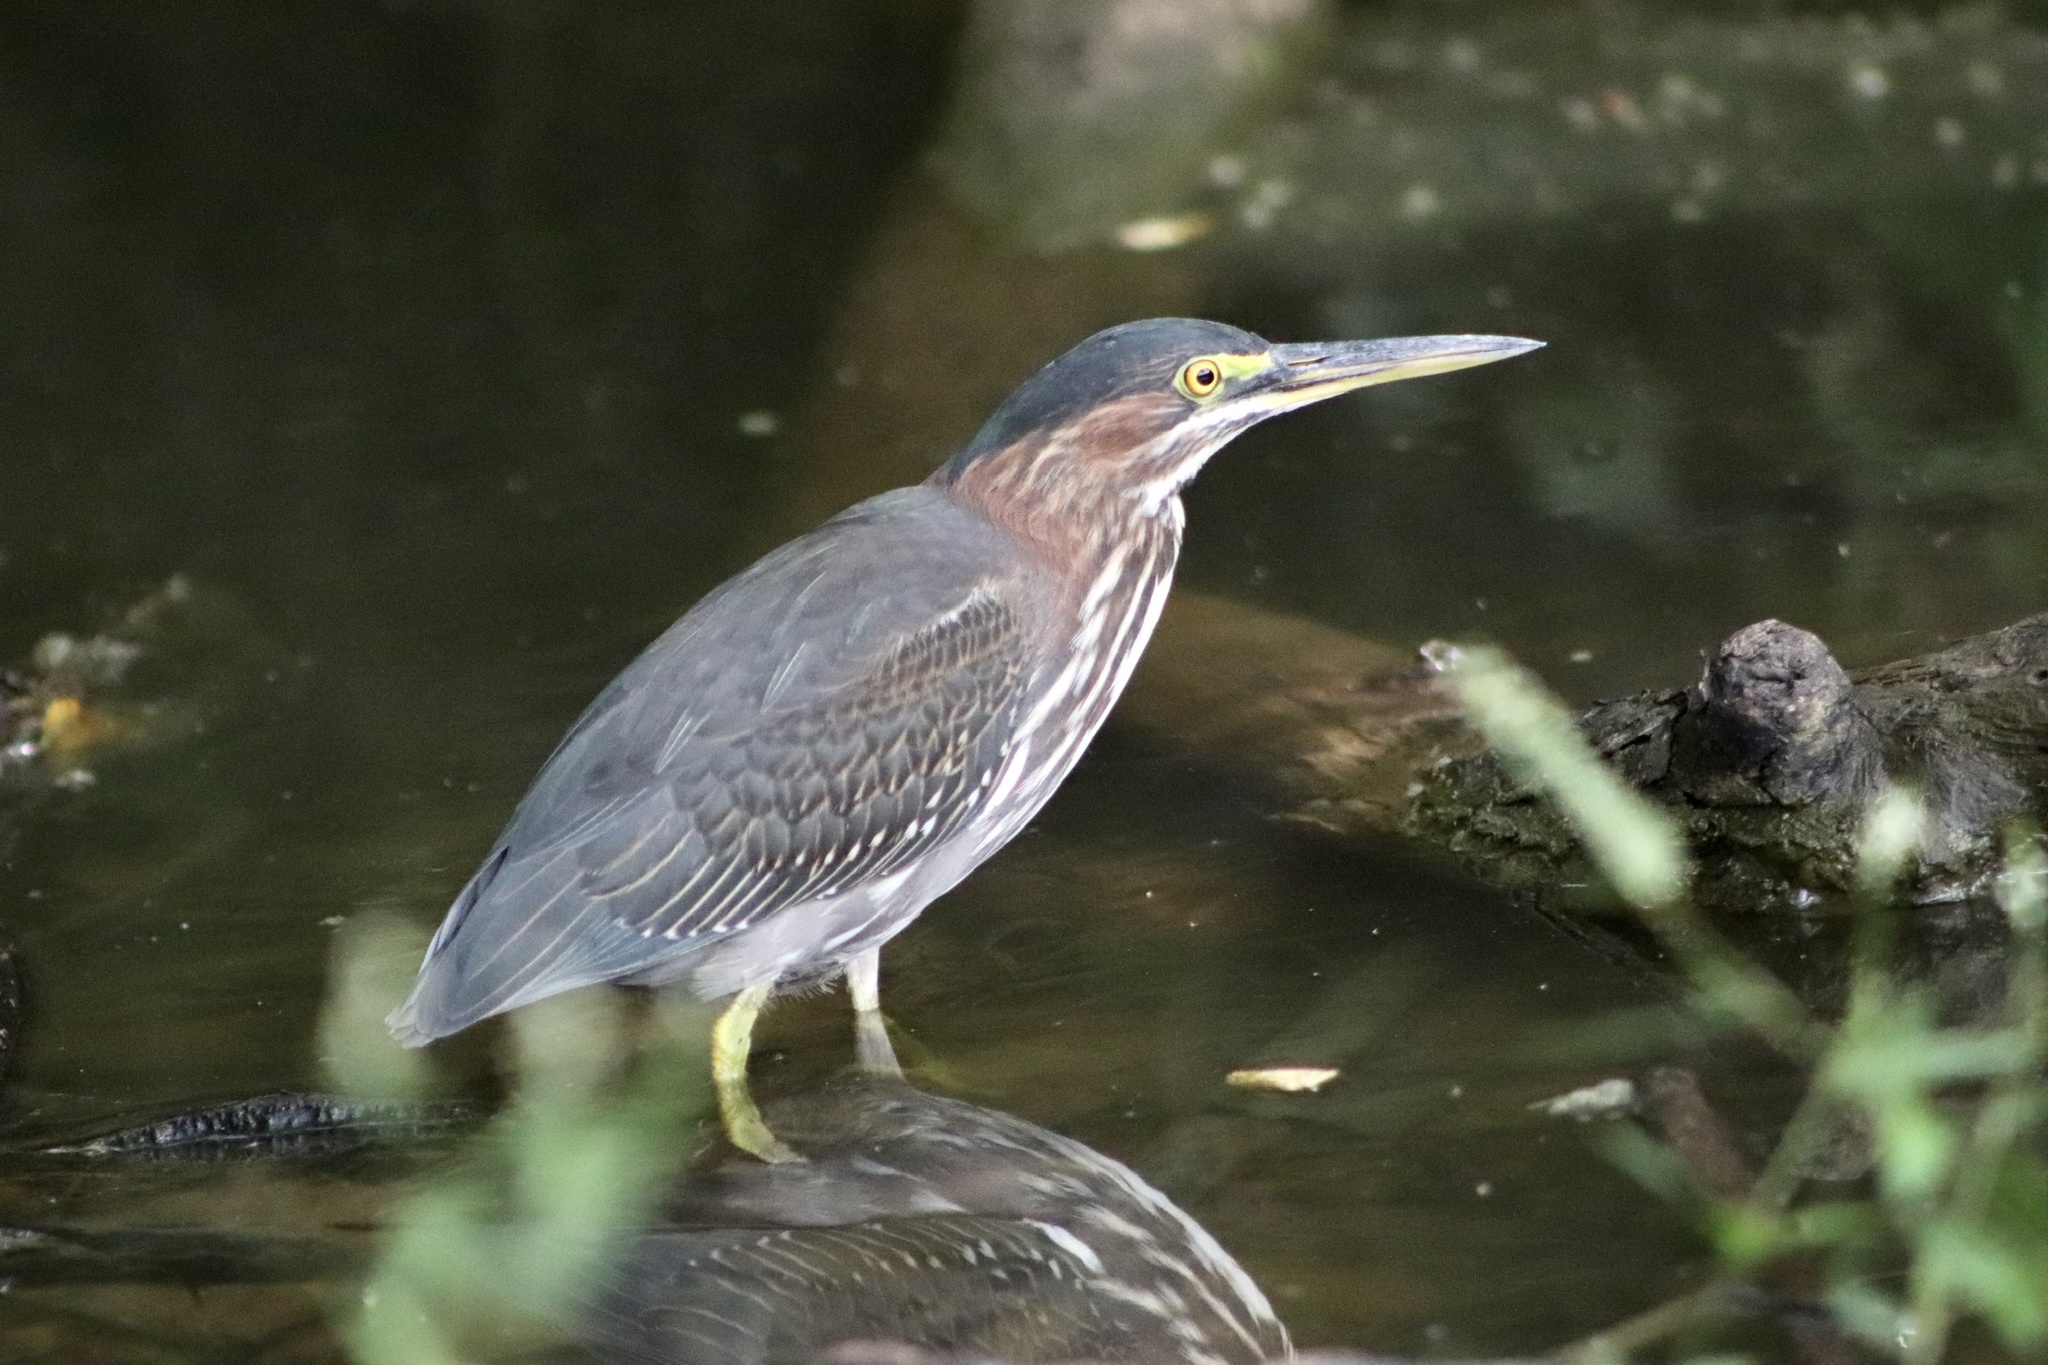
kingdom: Animalia
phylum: Chordata
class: Aves
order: Pelecaniformes
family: Ardeidae
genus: Butorides
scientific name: Butorides virescens
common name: Green heron
